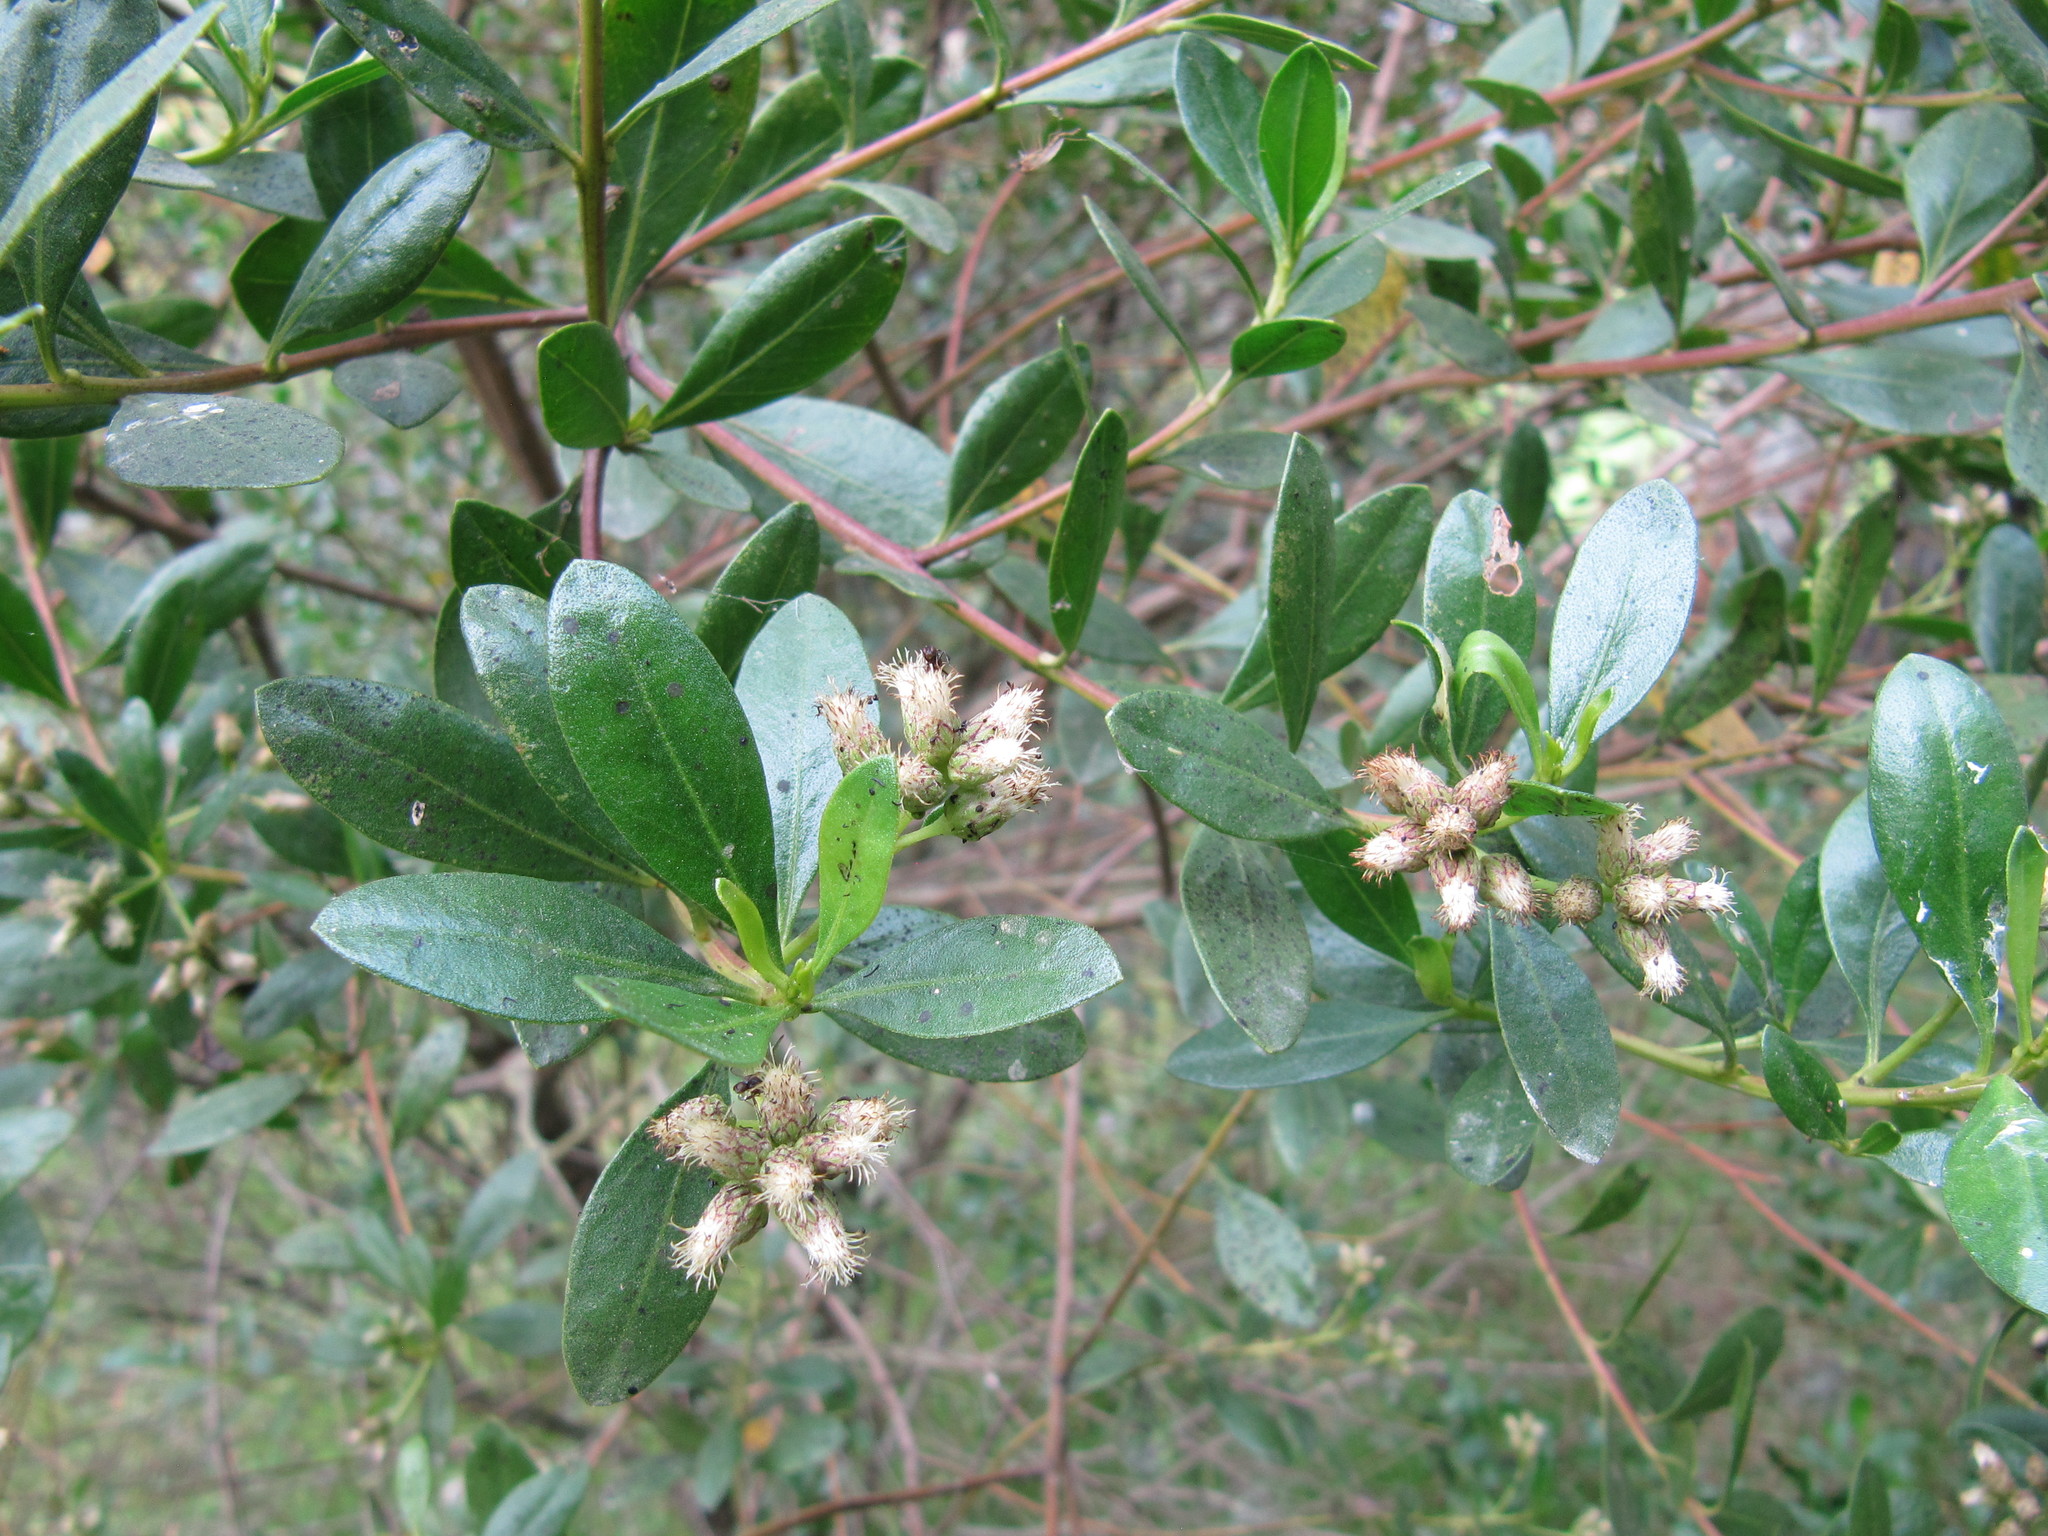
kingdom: Plantae
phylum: Tracheophyta
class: Magnoliopsida
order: Asterales
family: Asteraceae
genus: Baccharis
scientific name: Baccharis macrantha
